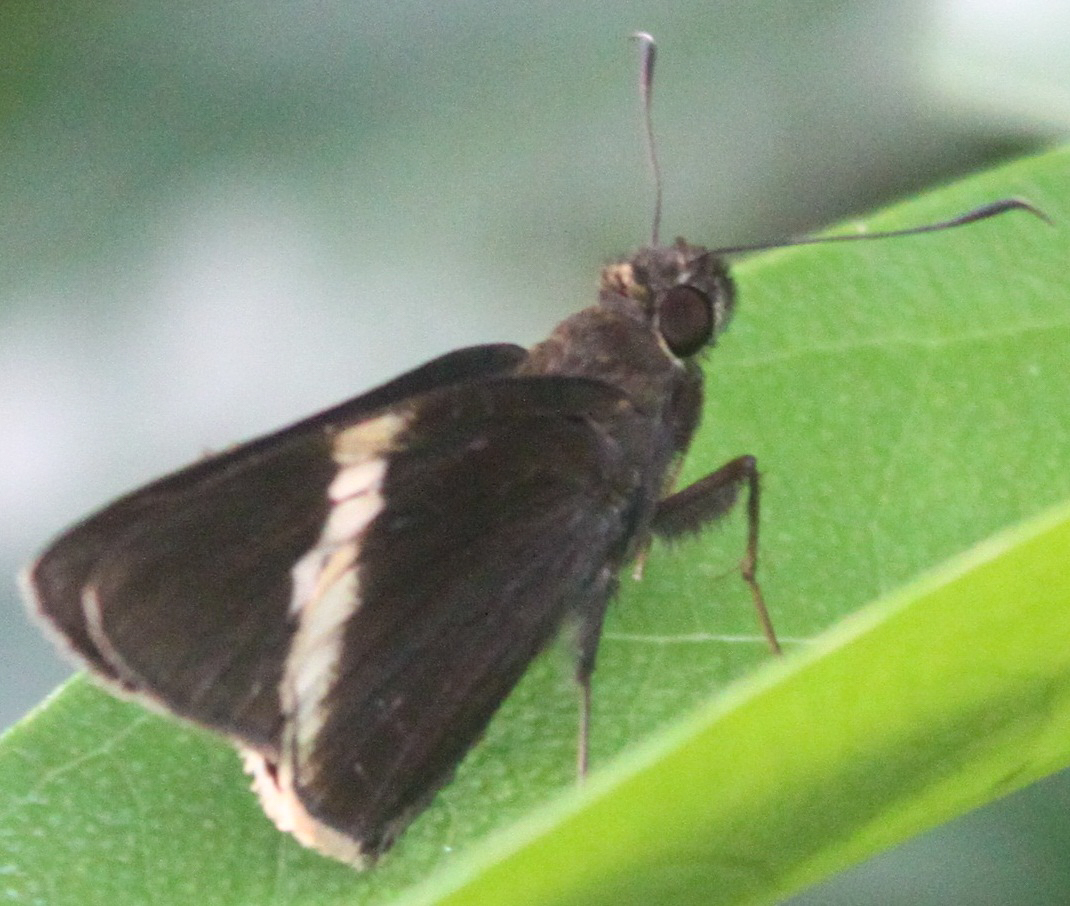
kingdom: Animalia
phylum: Arthropoda
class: Insecta
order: Lepidoptera
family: Hesperiidae
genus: Lotongus
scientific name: Lotongus calathus
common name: White-tipped palmer
